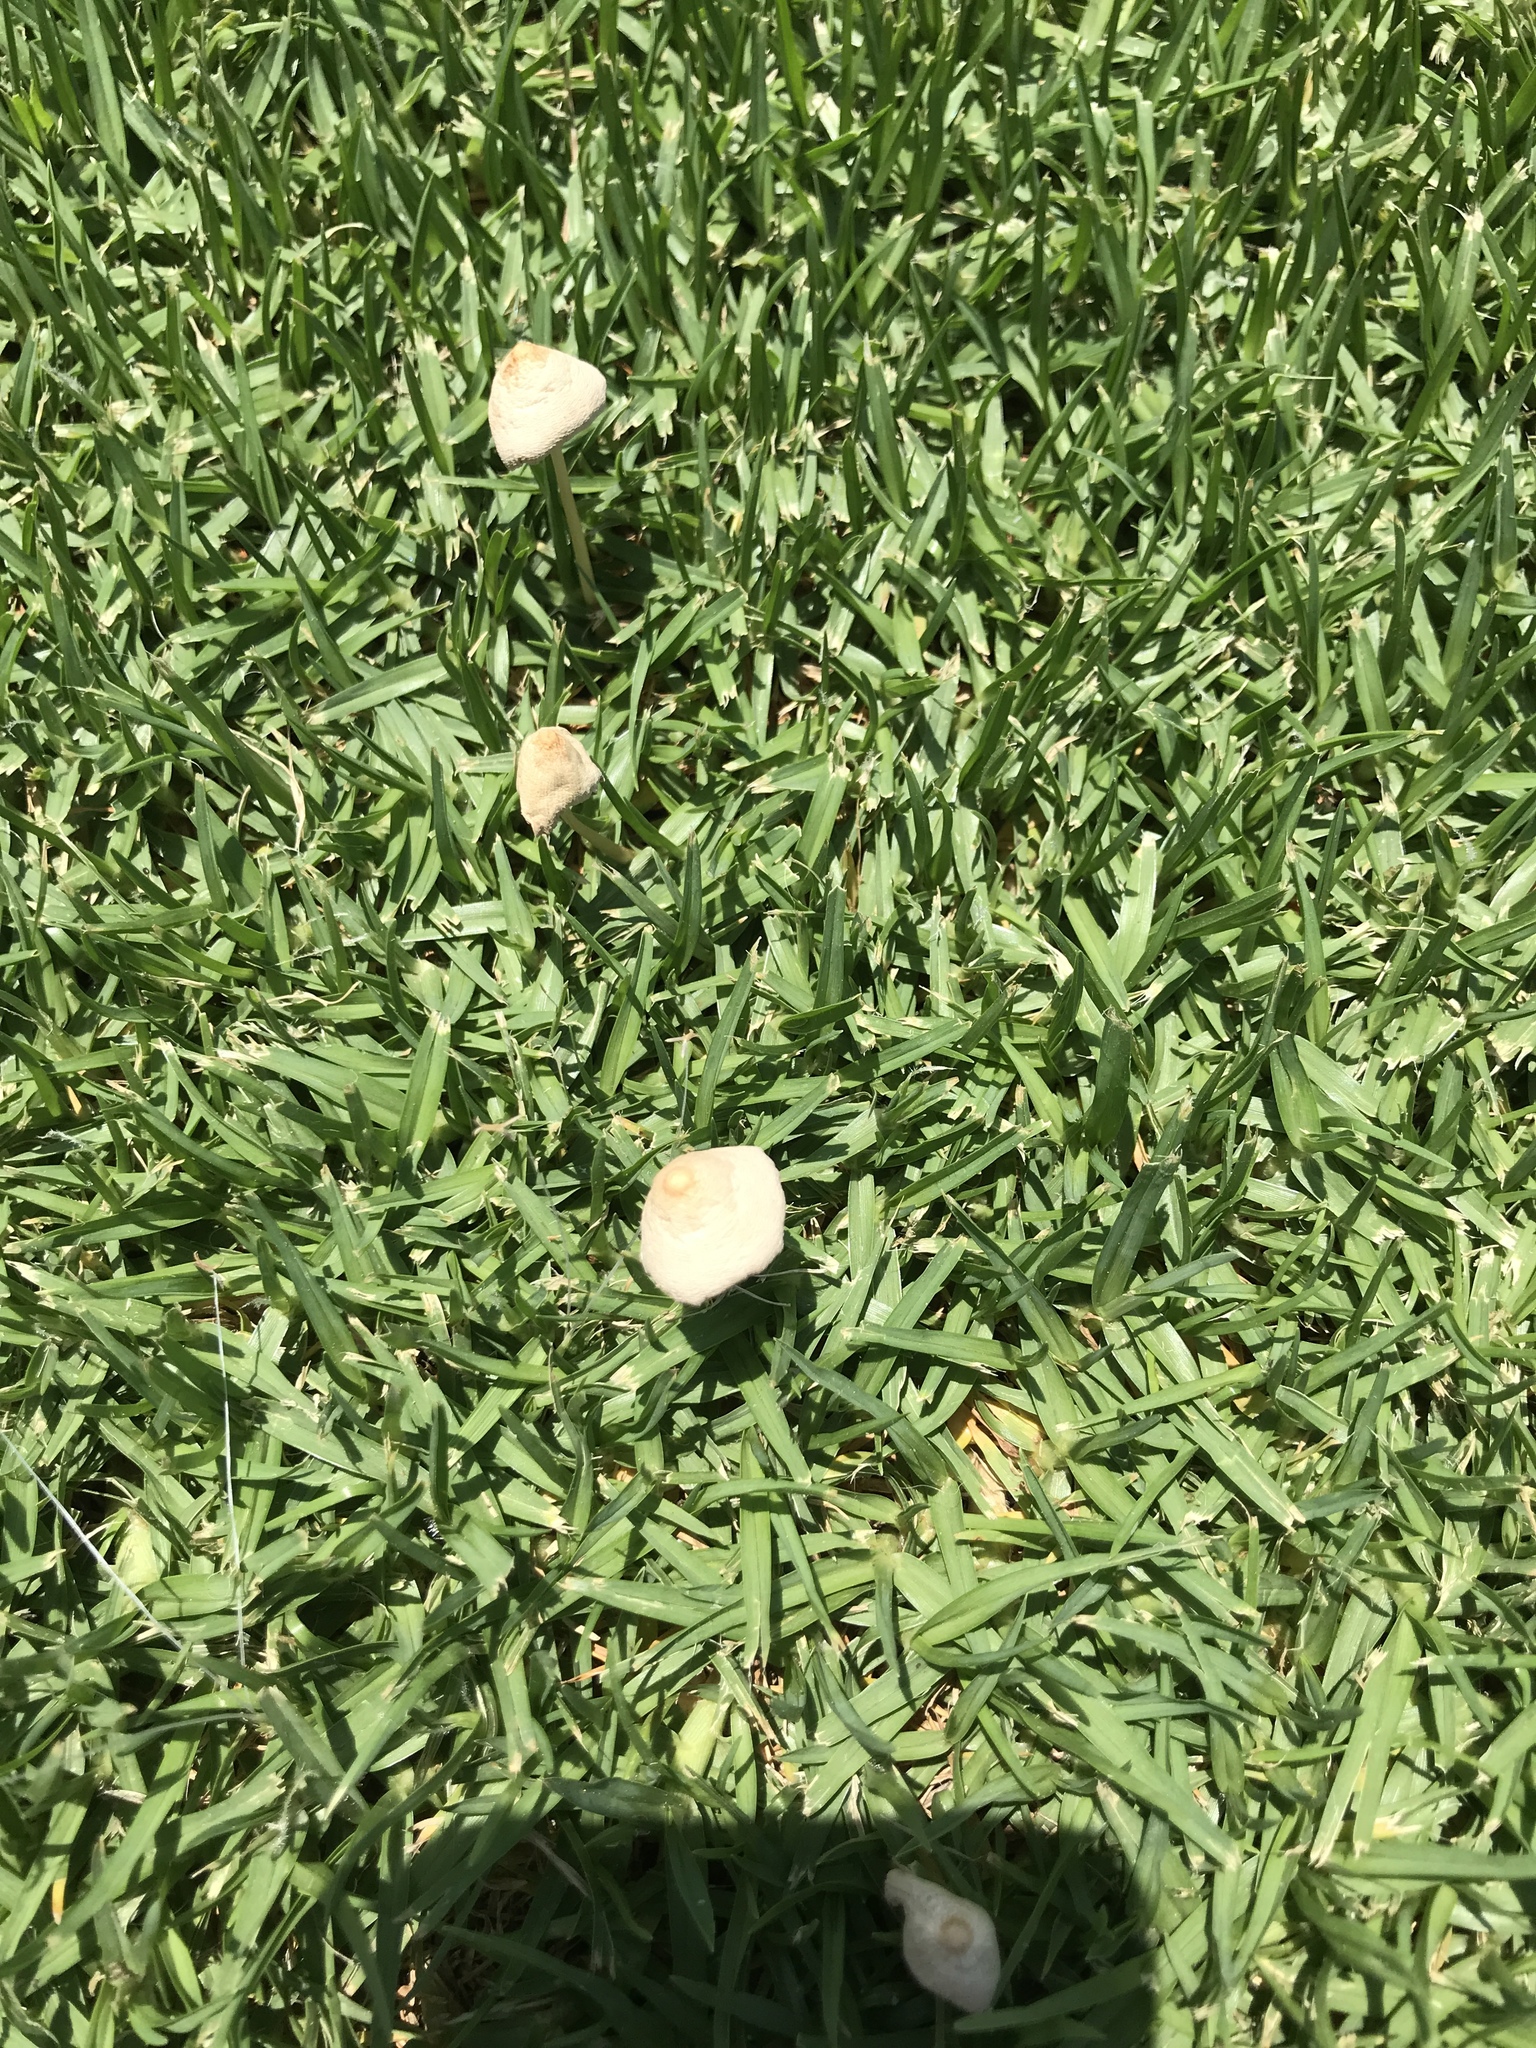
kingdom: Fungi
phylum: Basidiomycota
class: Agaricomycetes
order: Agaricales
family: Bolbitiaceae
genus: Conocybe
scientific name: Conocybe apala
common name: Milky conecap
